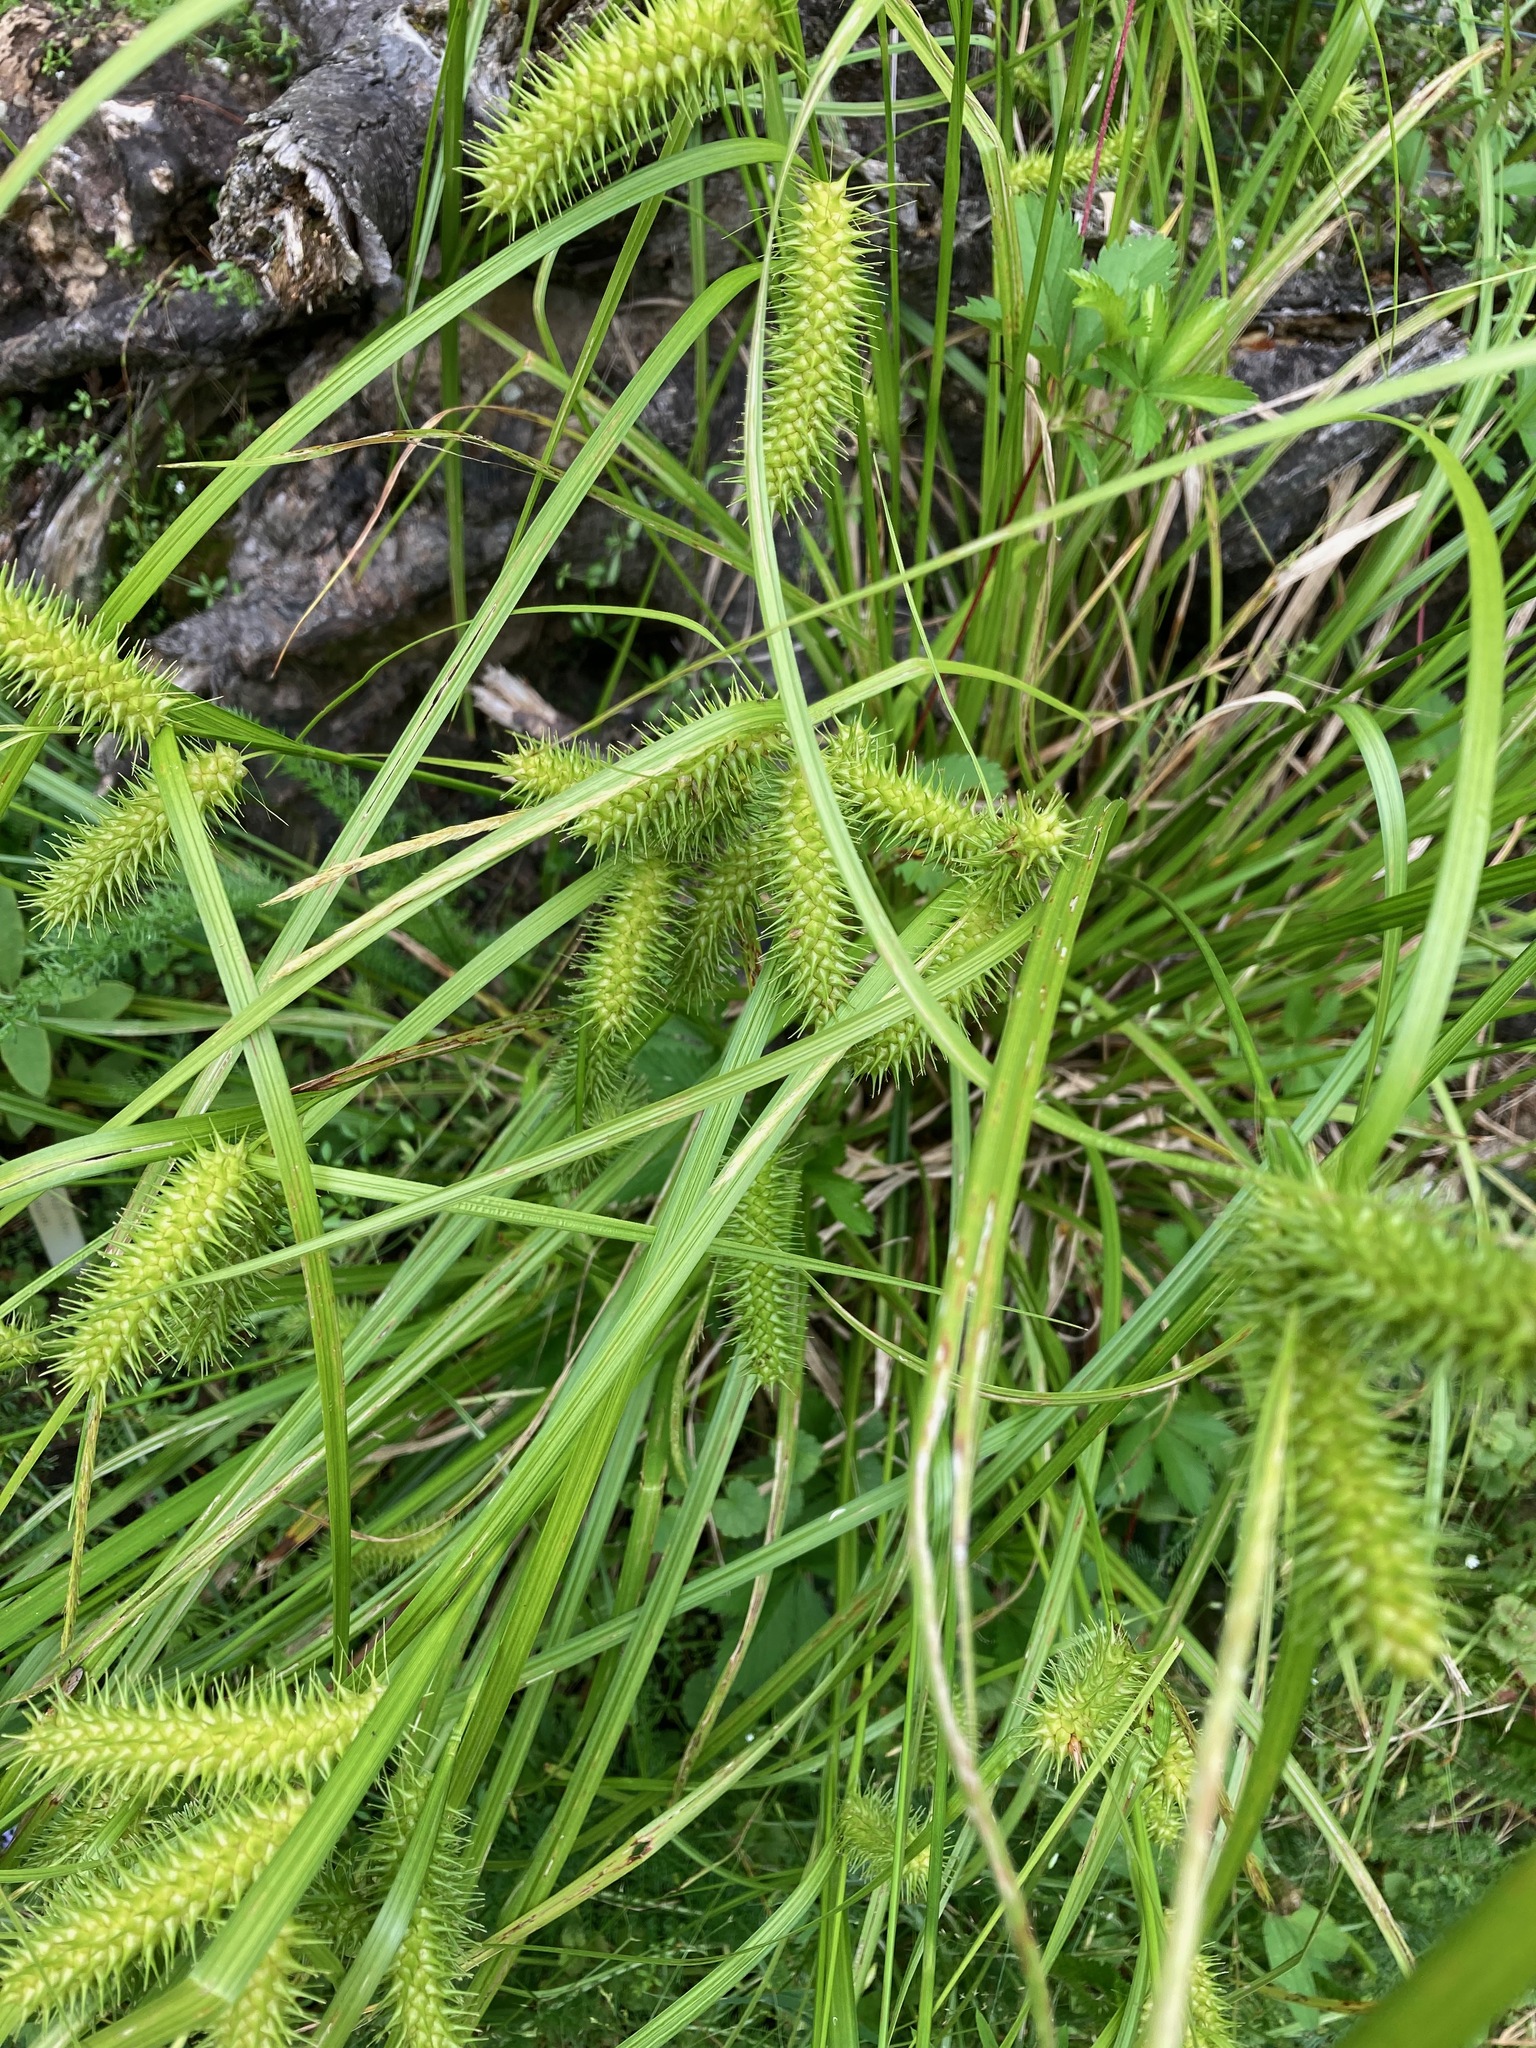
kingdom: Plantae
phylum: Tracheophyta
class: Liliopsida
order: Poales
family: Cyperaceae
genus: Carex
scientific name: Carex lurida
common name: Sallow sedge
